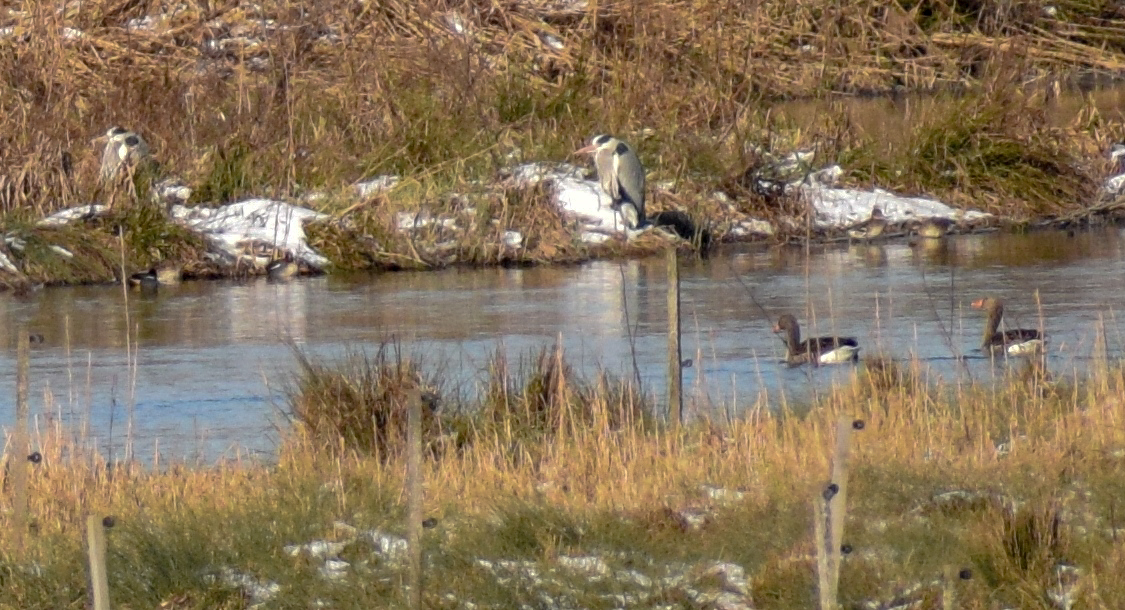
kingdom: Animalia
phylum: Chordata
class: Aves
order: Pelecaniformes
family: Ardeidae
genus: Ardea
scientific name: Ardea cinerea
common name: Grey heron
